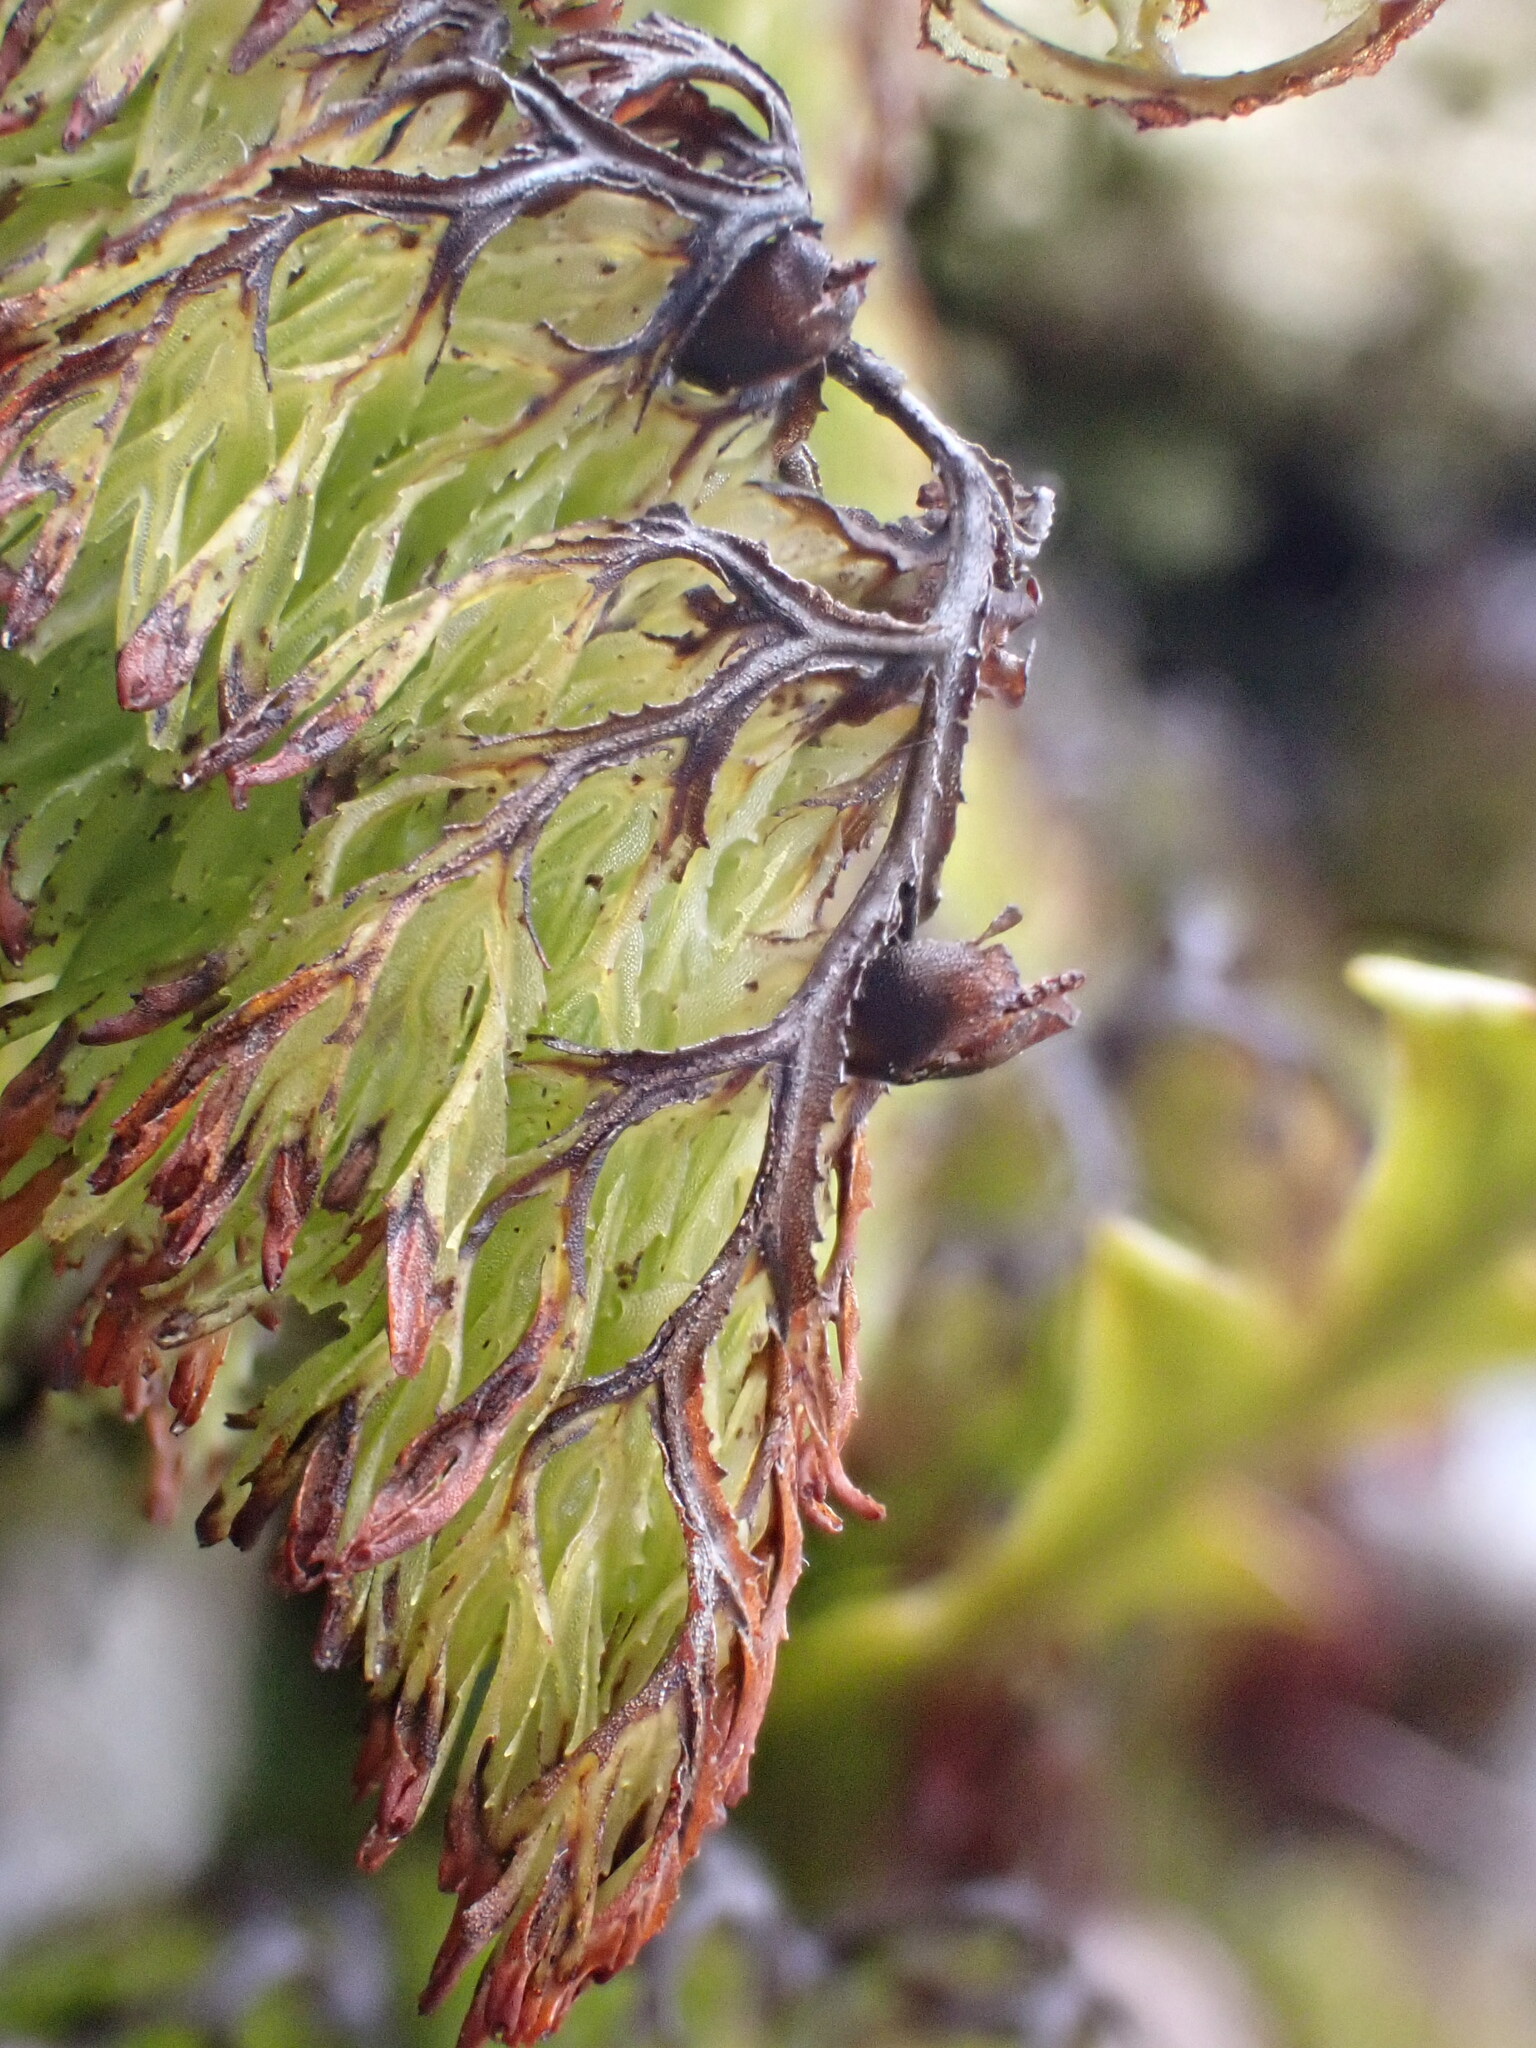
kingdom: Plantae
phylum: Tracheophyta
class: Polypodiopsida
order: Hymenophyllales
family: Hymenophyllaceae
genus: Hymenophyllum
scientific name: Hymenophyllum multifidum
